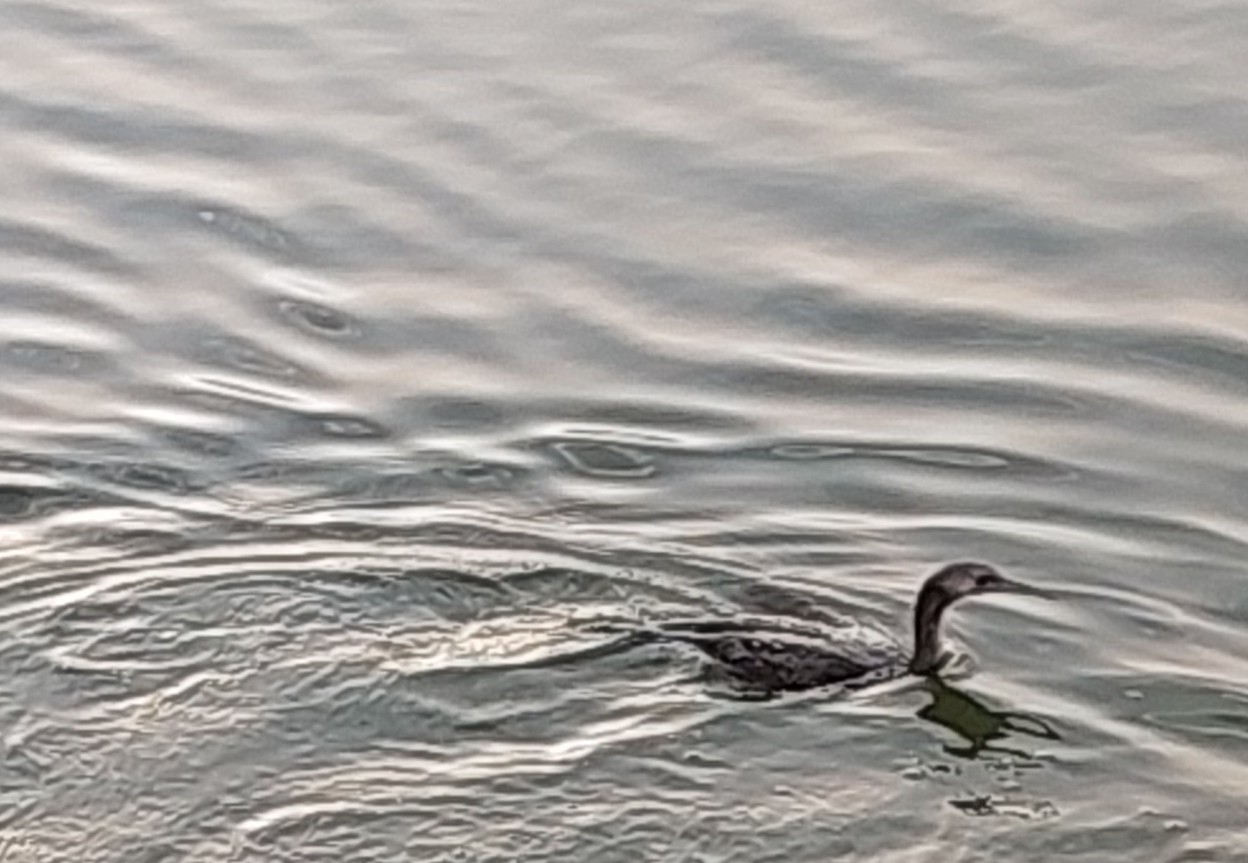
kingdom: Animalia
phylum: Chordata
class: Aves
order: Suliformes
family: Phalacrocoracidae
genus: Phalacrocorax
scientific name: Phalacrocorax nigrogularis
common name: Socotra cormorant
